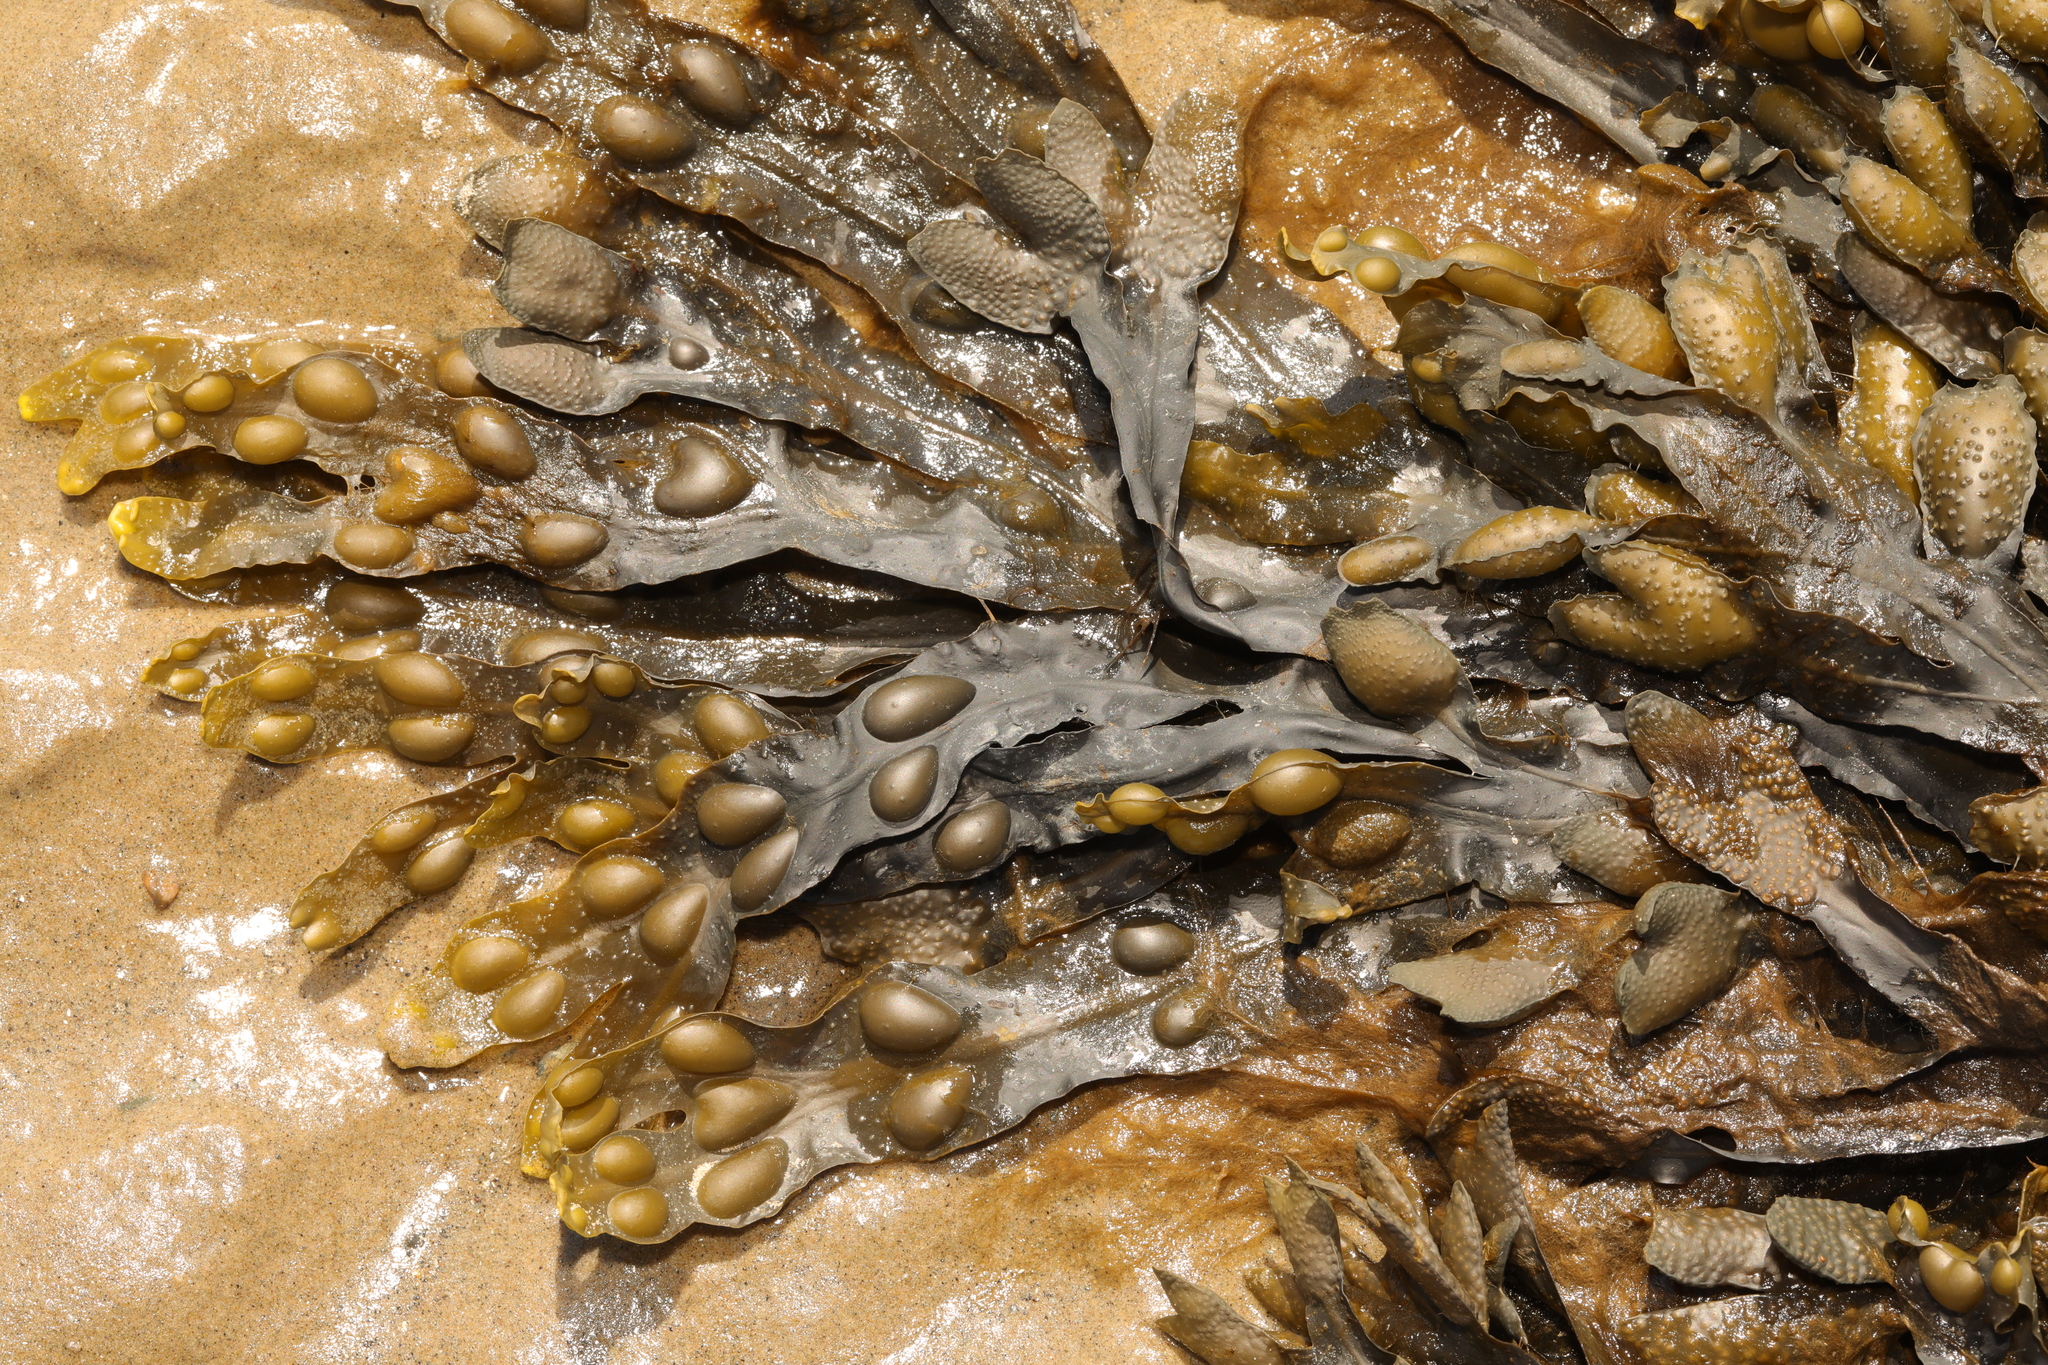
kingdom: Chromista
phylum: Ochrophyta
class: Phaeophyceae
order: Fucales
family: Fucaceae
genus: Fucus
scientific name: Fucus vesiculosus
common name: Bladder wrack
